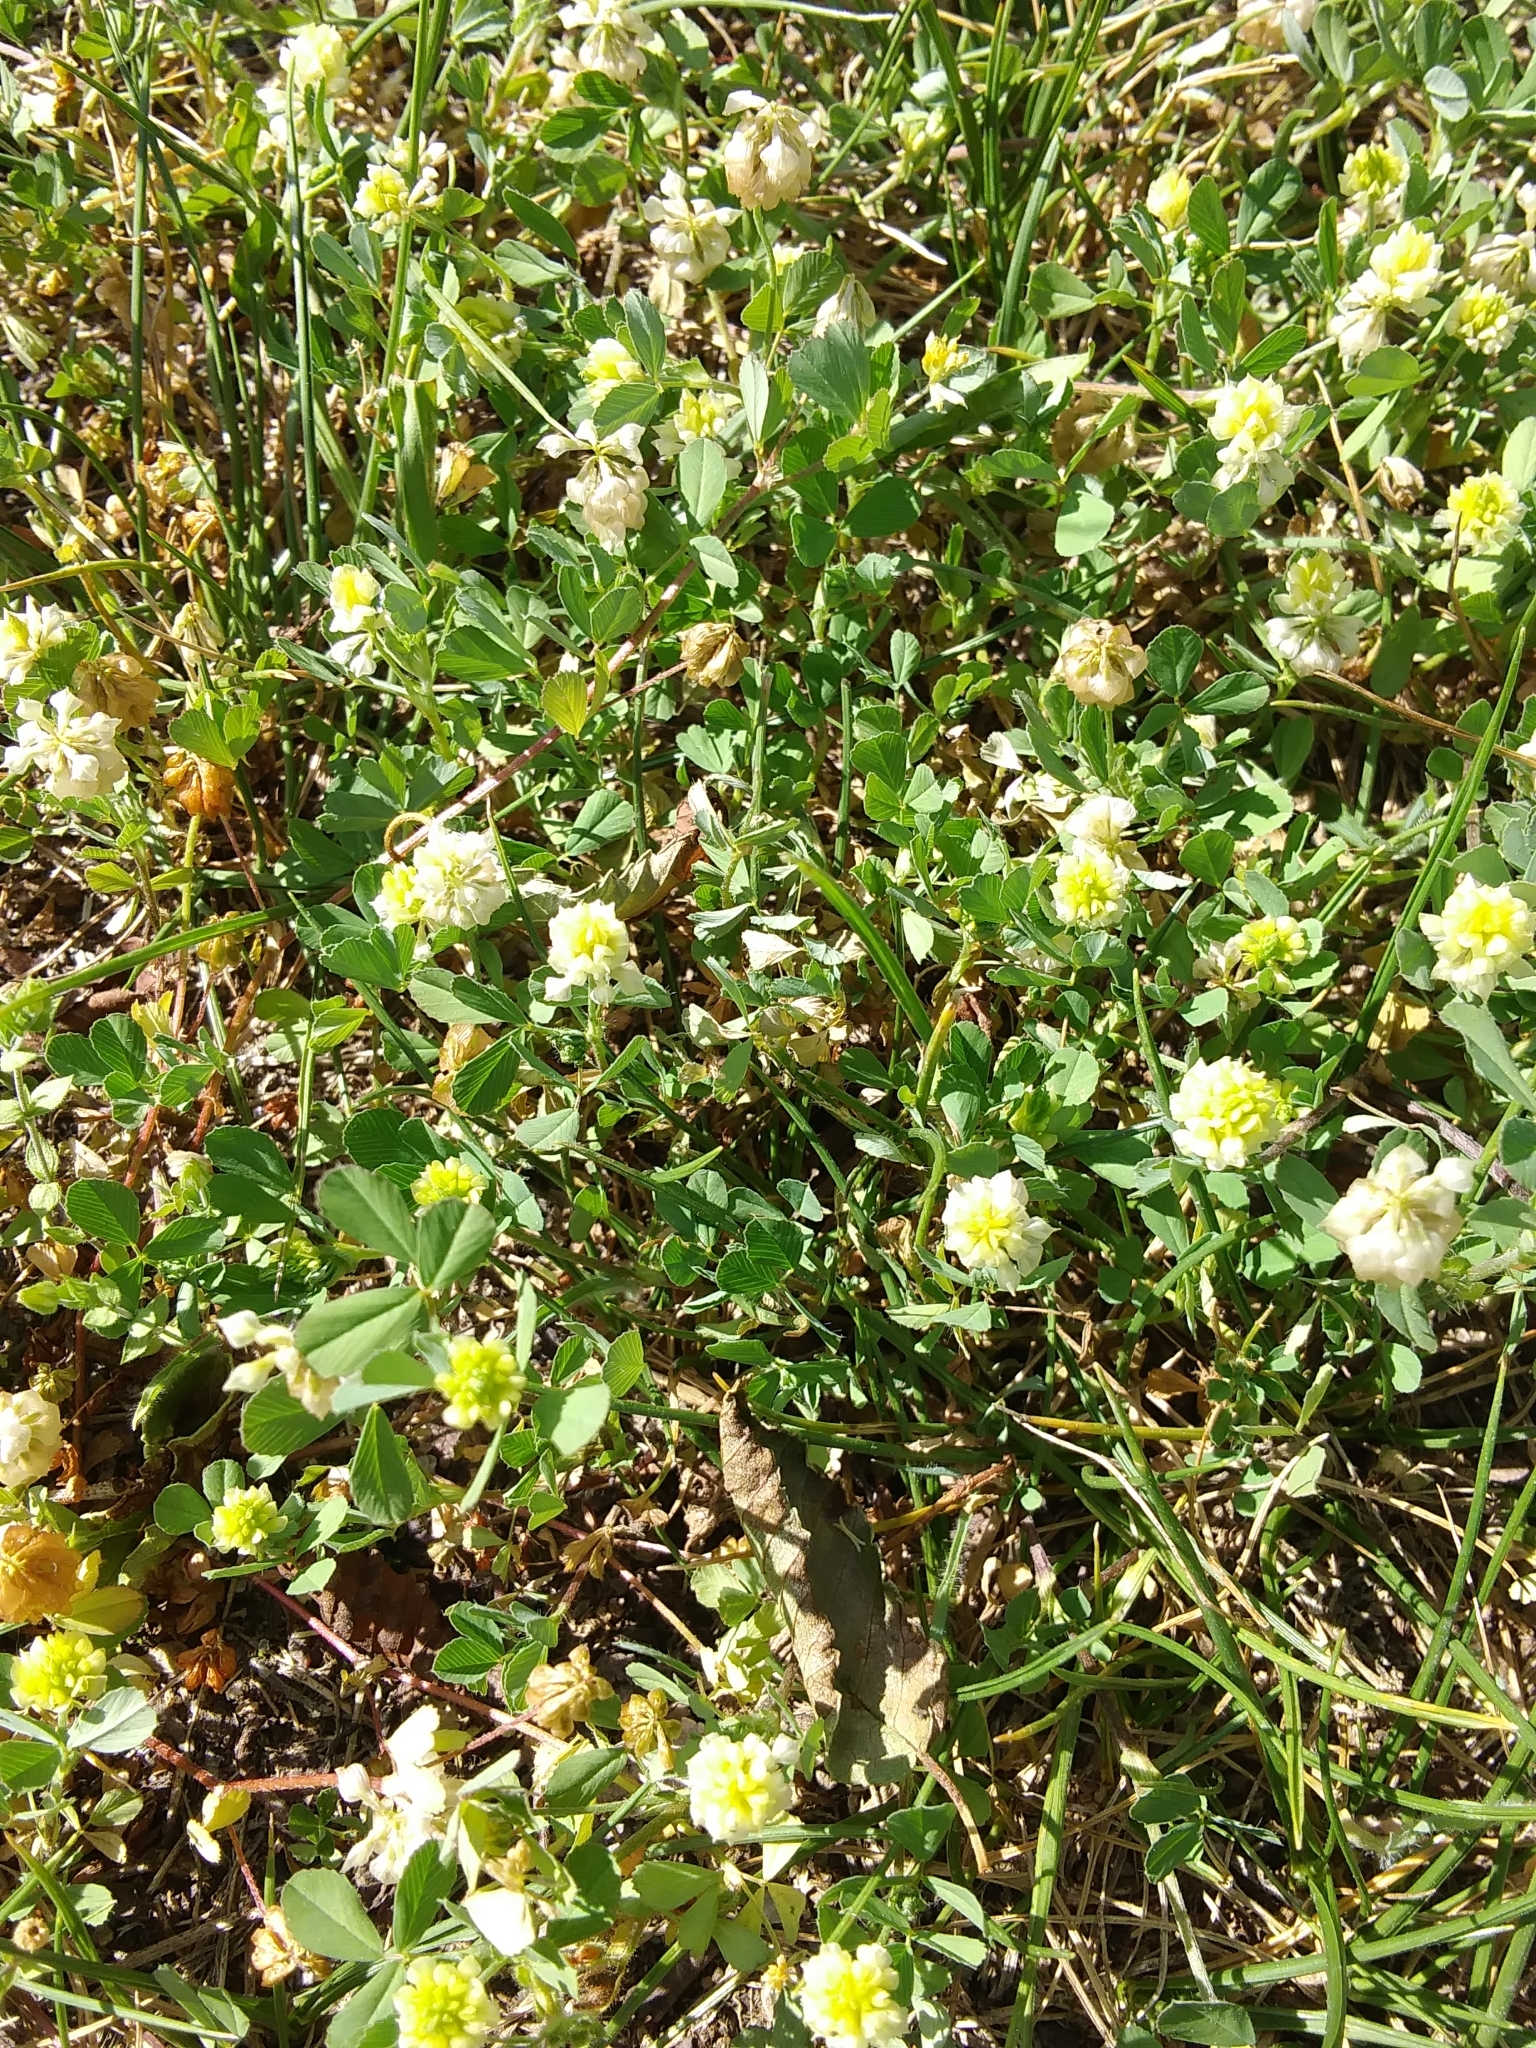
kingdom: Plantae
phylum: Tracheophyta
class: Magnoliopsida
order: Fabales
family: Fabaceae
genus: Trifolium
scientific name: Trifolium campestre
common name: Field clover
